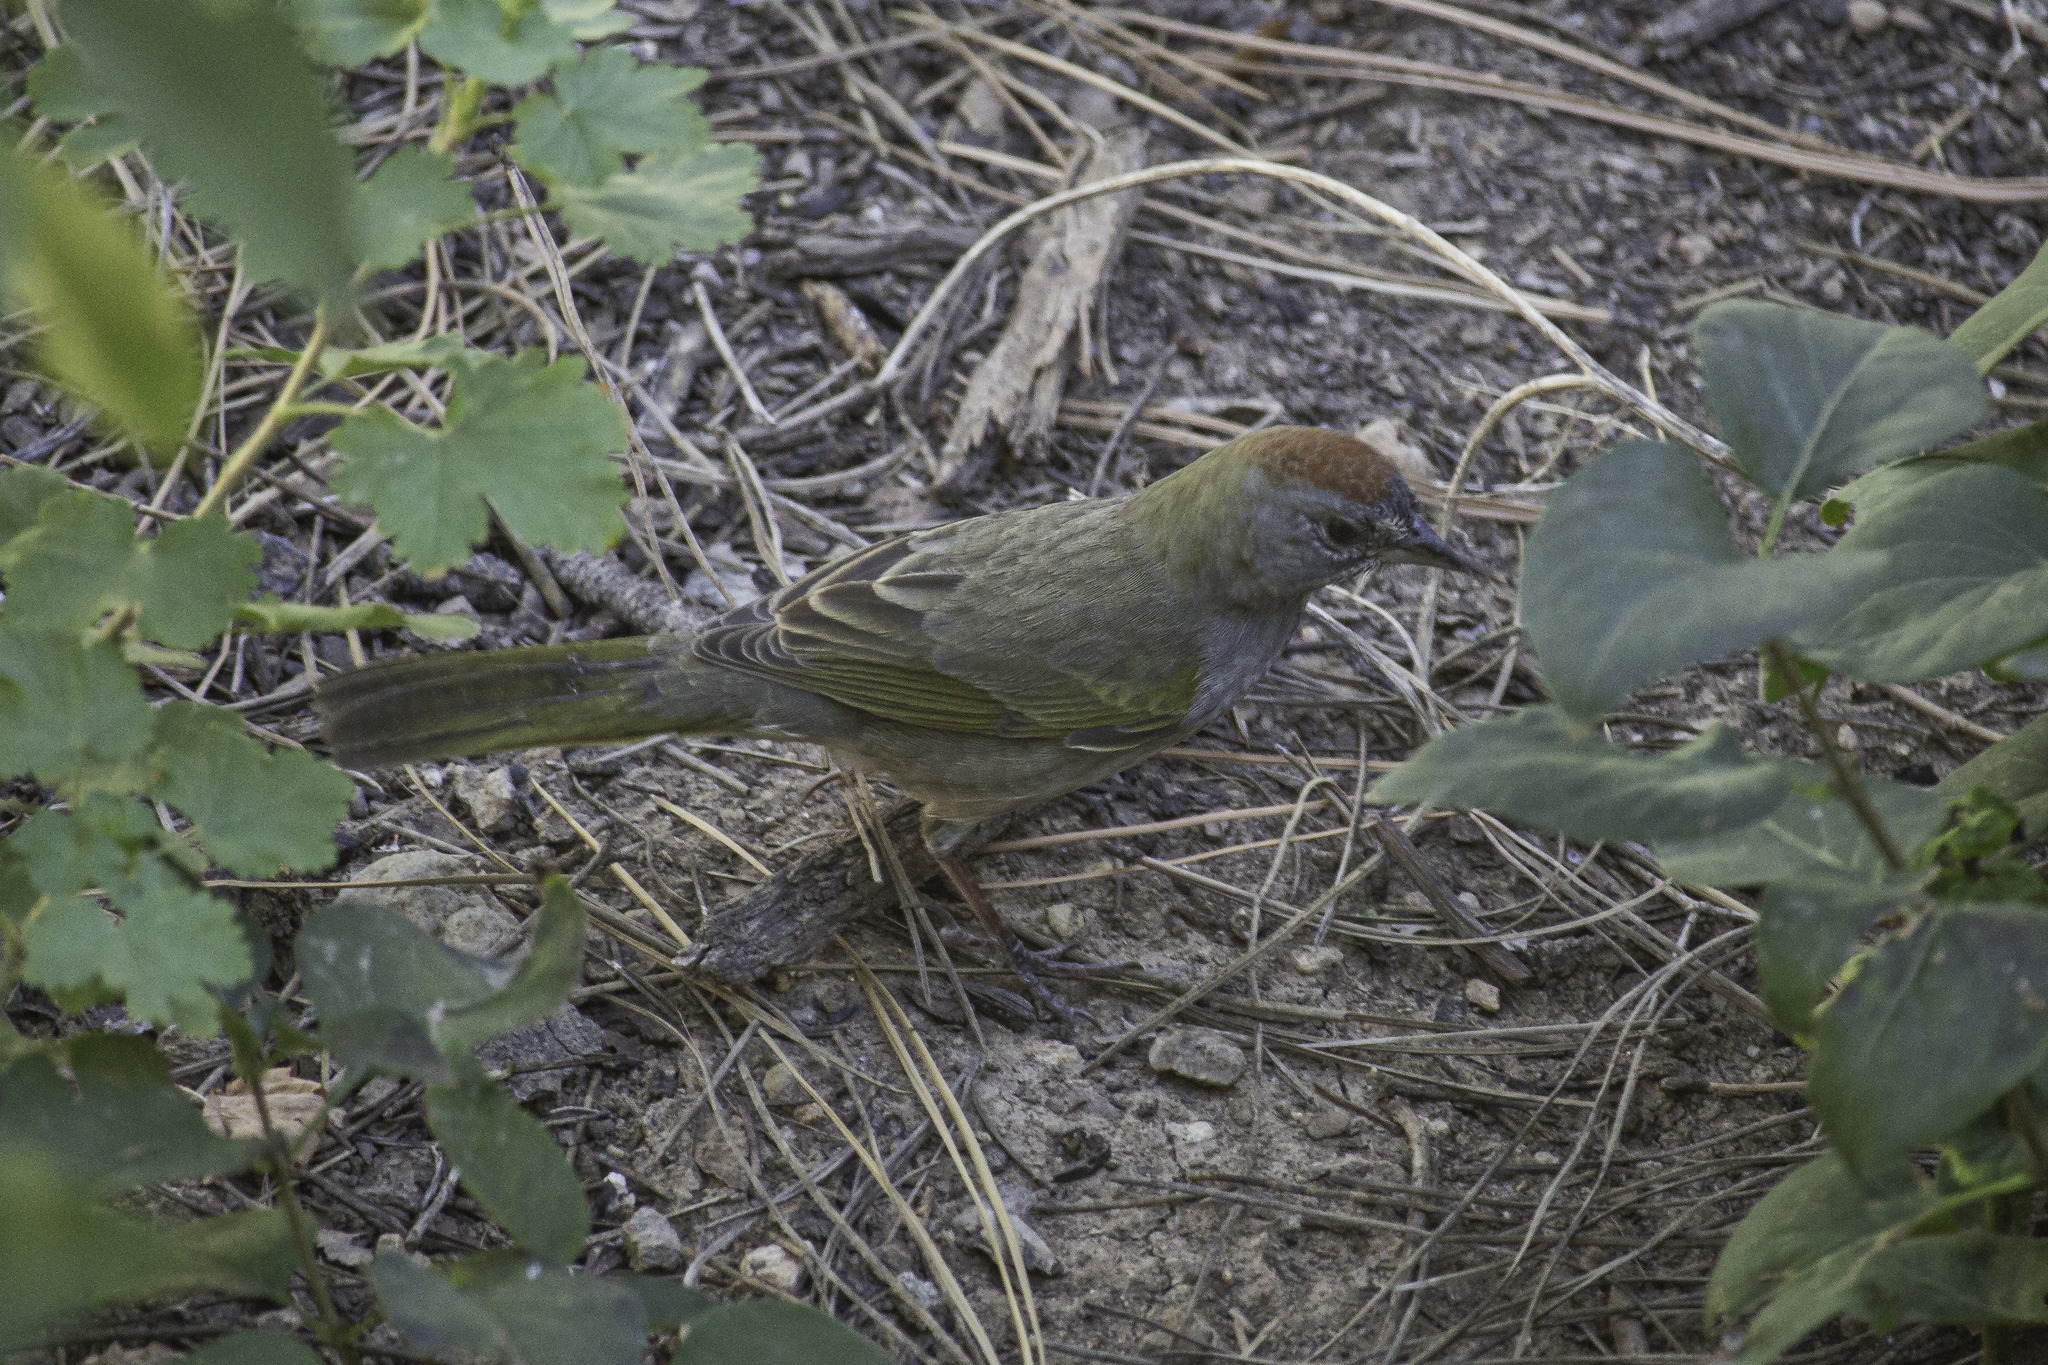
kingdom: Animalia
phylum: Chordata
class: Aves
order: Passeriformes
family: Passerellidae
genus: Pipilo
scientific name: Pipilo chlorurus
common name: Green-tailed towhee
